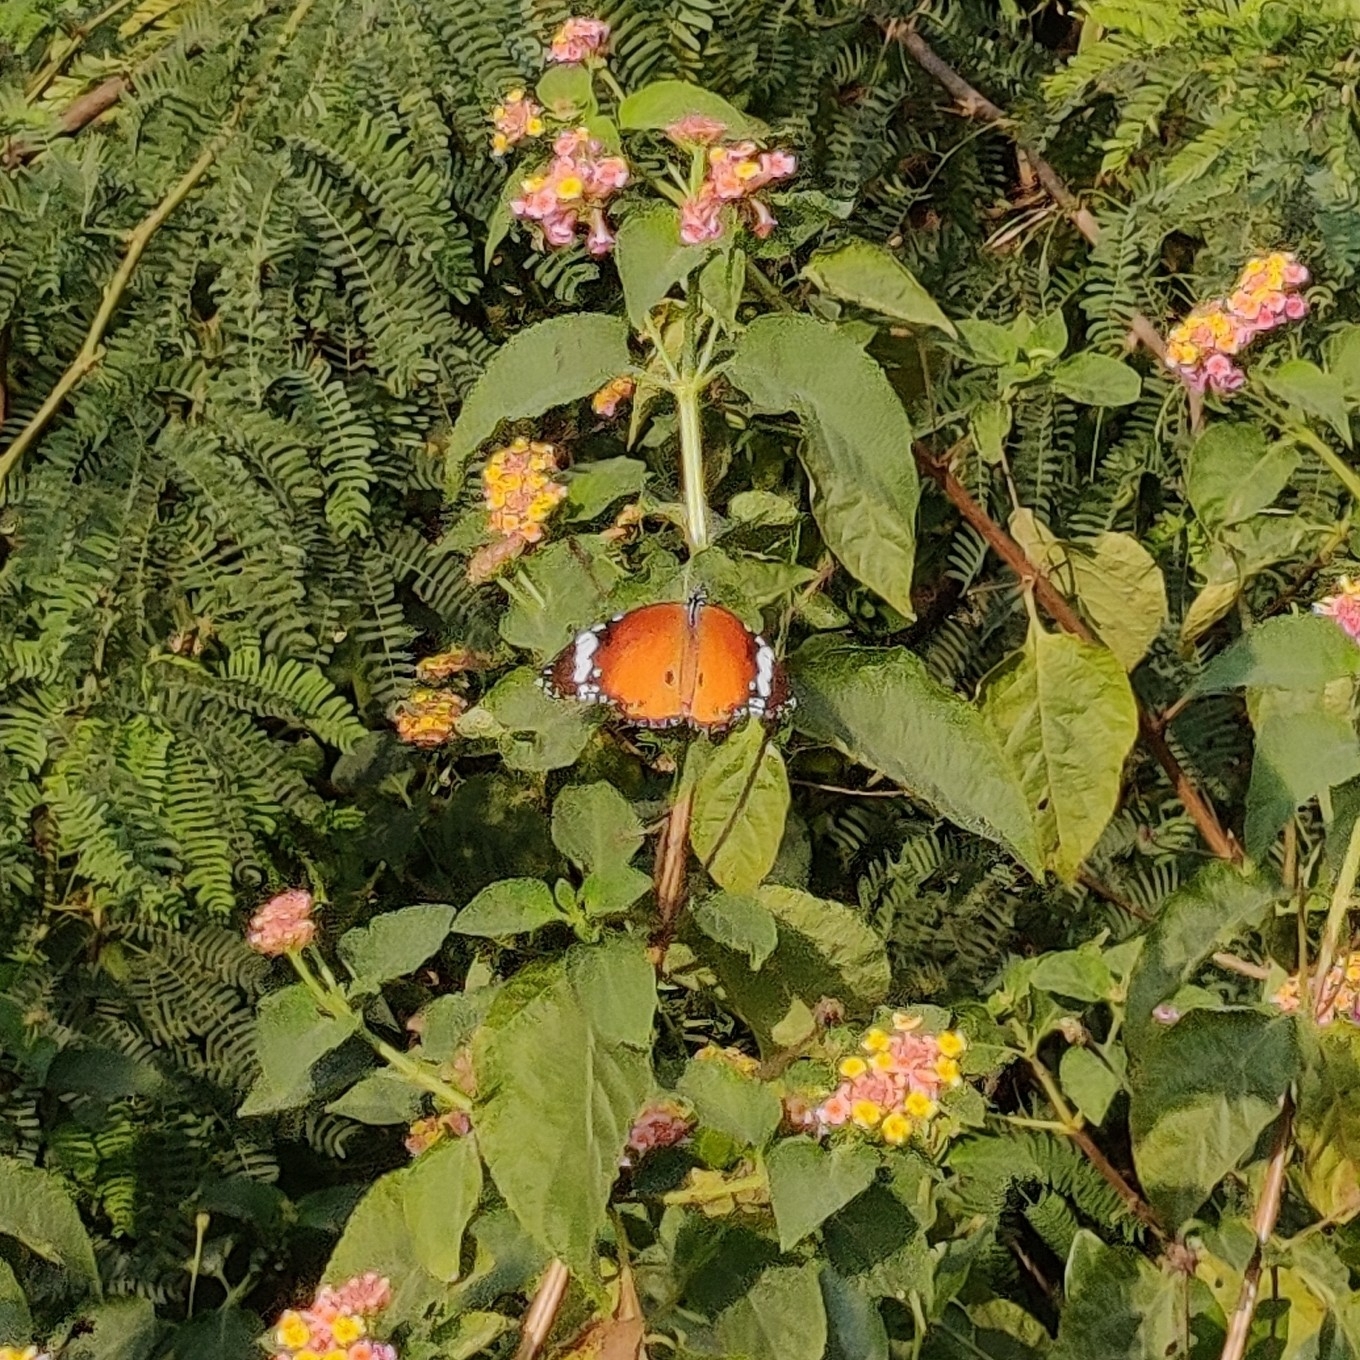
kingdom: Animalia
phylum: Arthropoda
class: Insecta
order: Lepidoptera
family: Nymphalidae
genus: Danaus
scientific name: Danaus chrysippus
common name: Plain tiger
